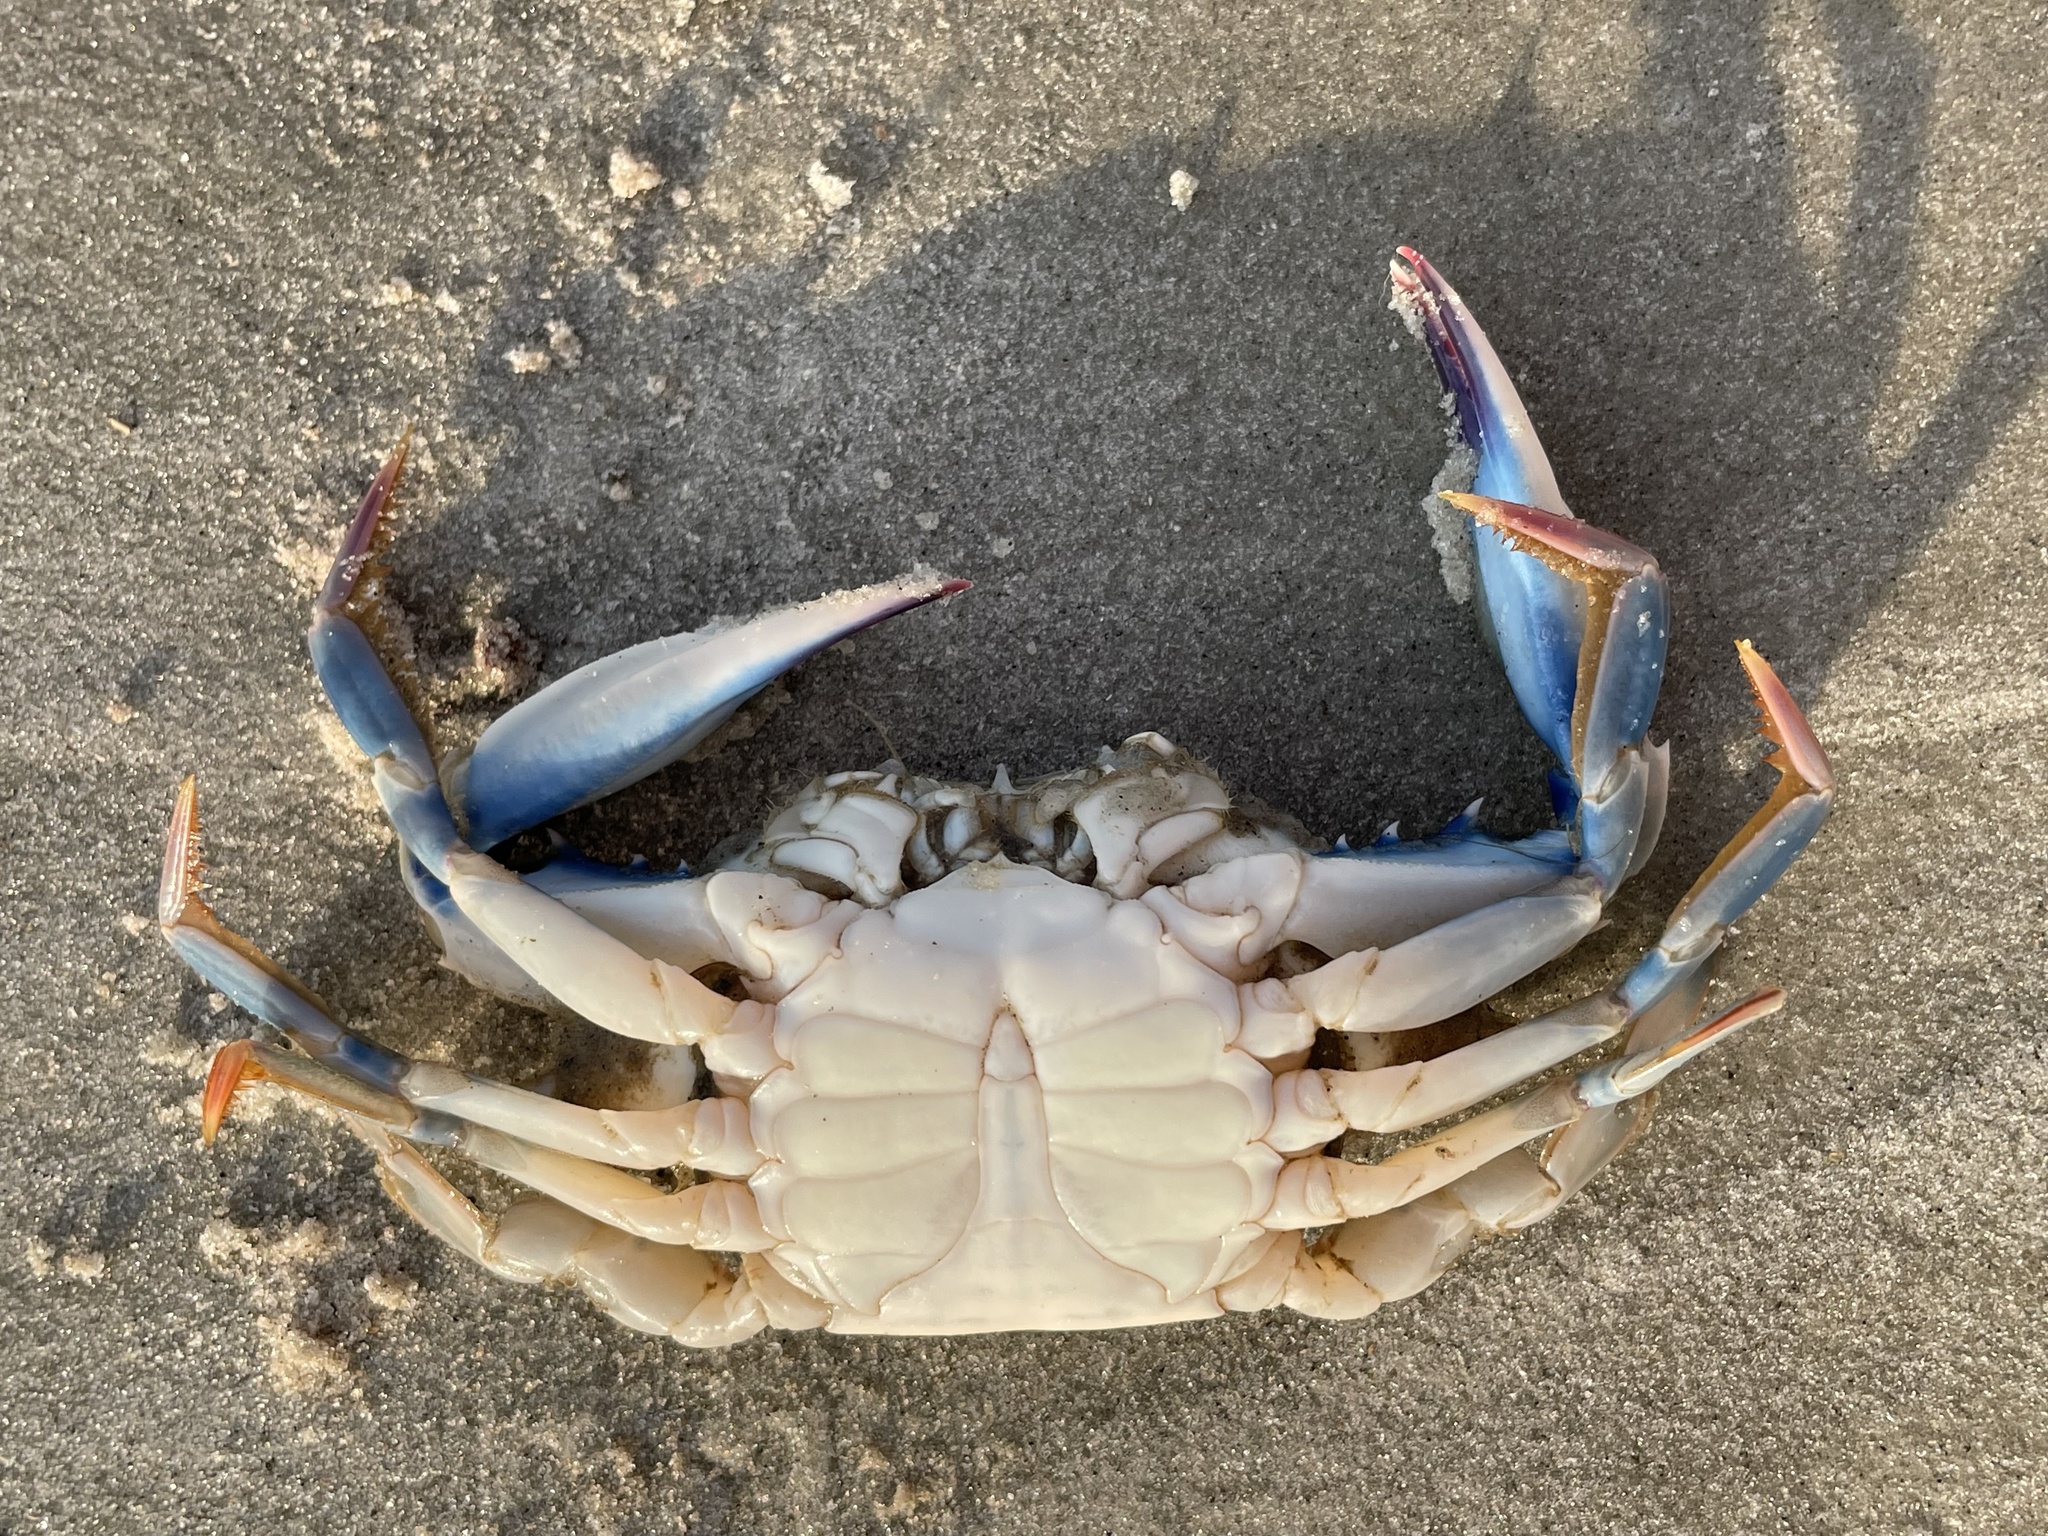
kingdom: Animalia
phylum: Arthropoda
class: Malacostraca
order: Decapoda
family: Portunidae
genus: Callinectes
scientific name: Callinectes similis
